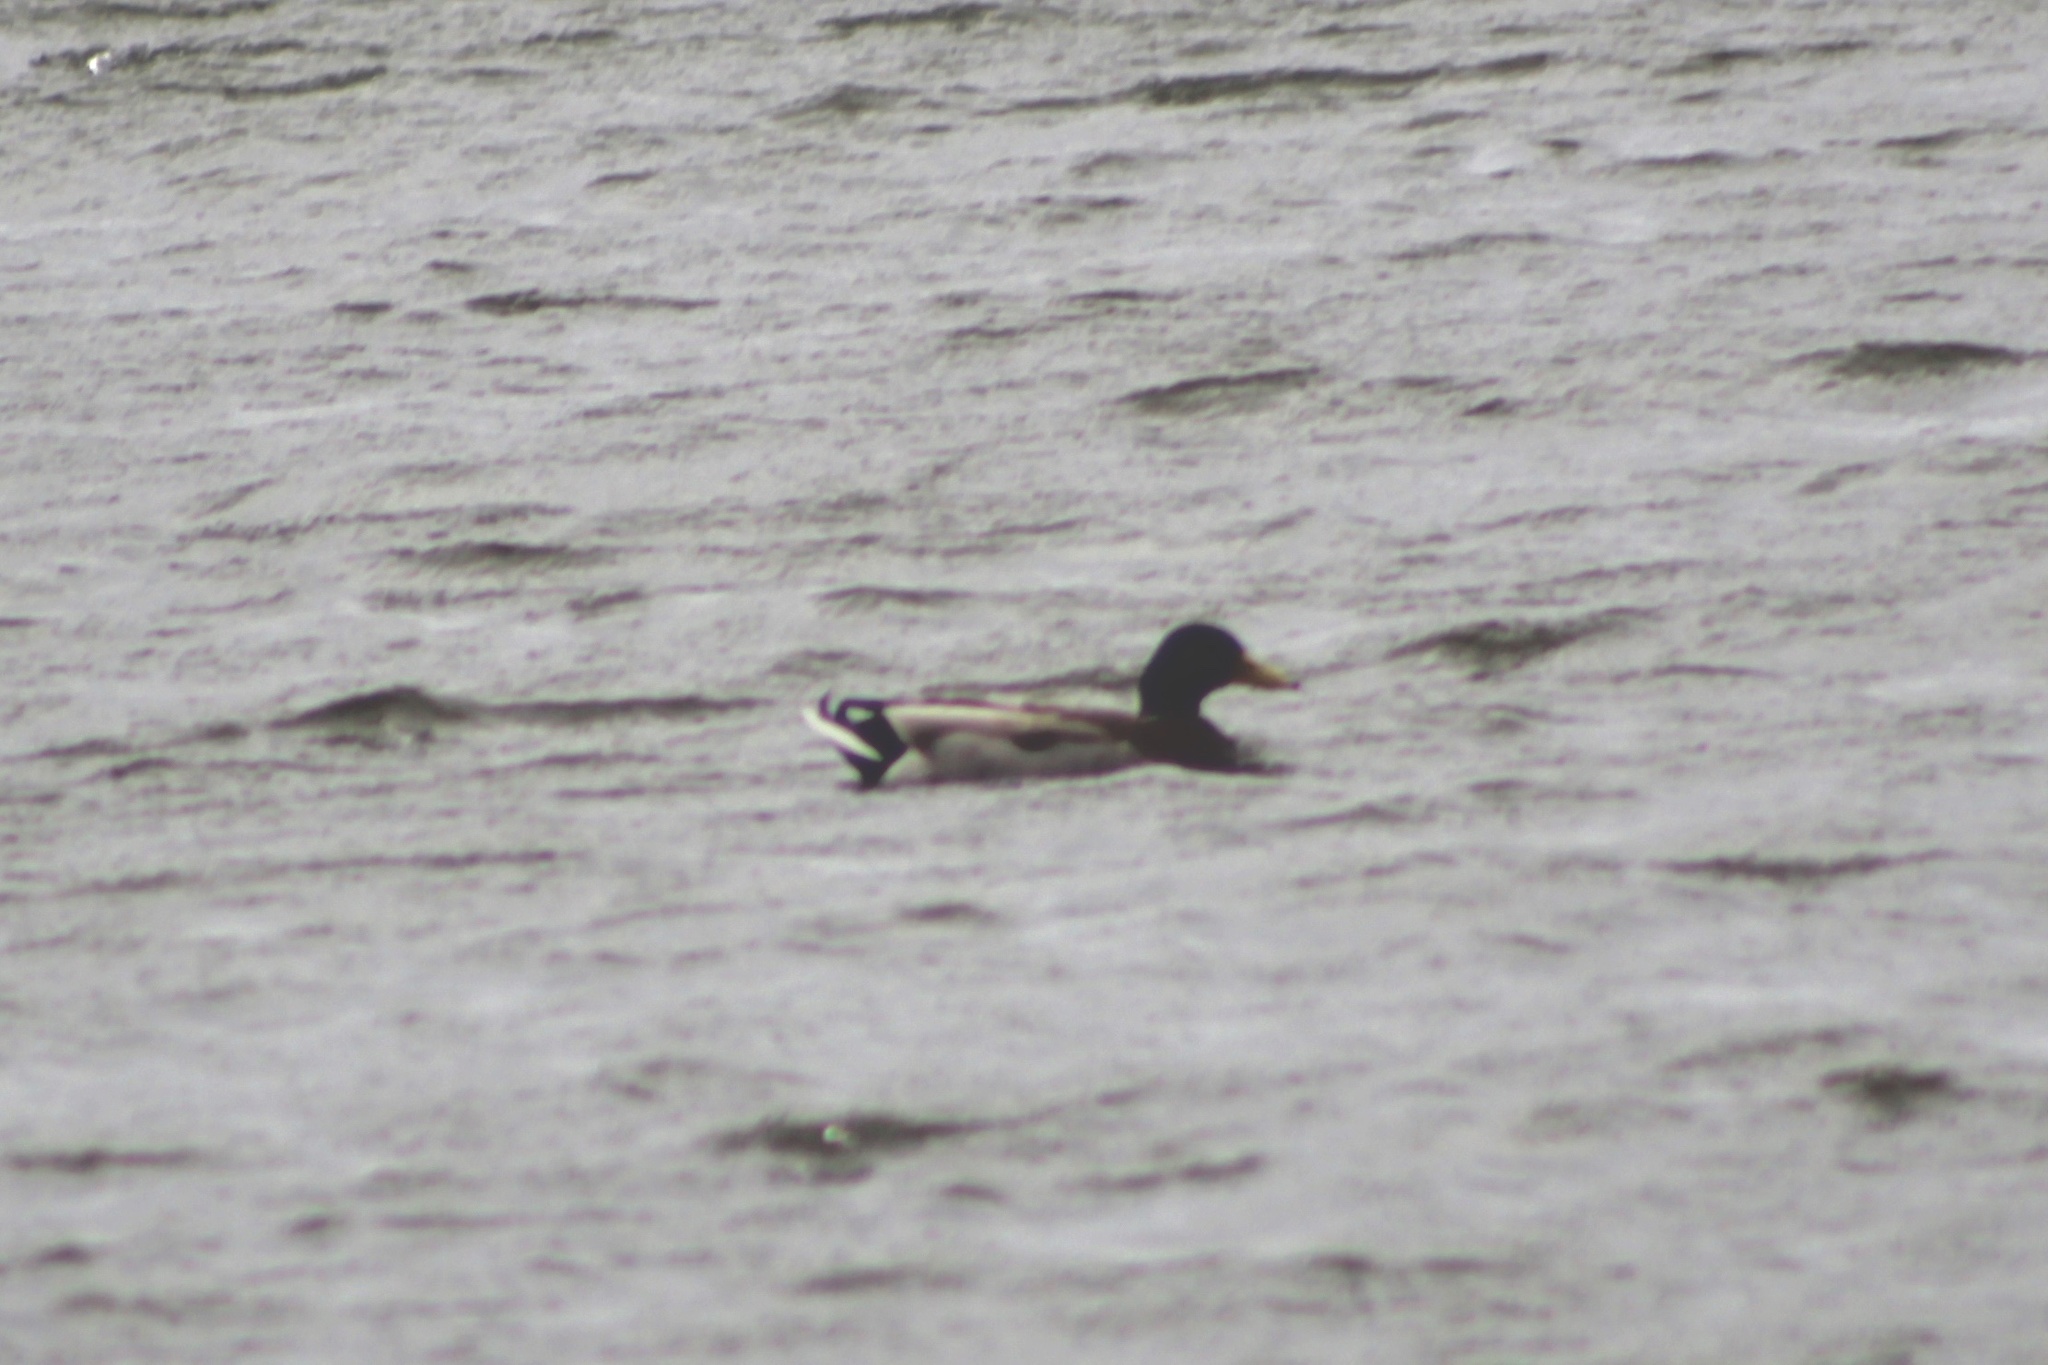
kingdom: Animalia
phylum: Chordata
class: Aves
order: Anseriformes
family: Anatidae
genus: Anas
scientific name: Anas platyrhynchos
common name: Mallard
